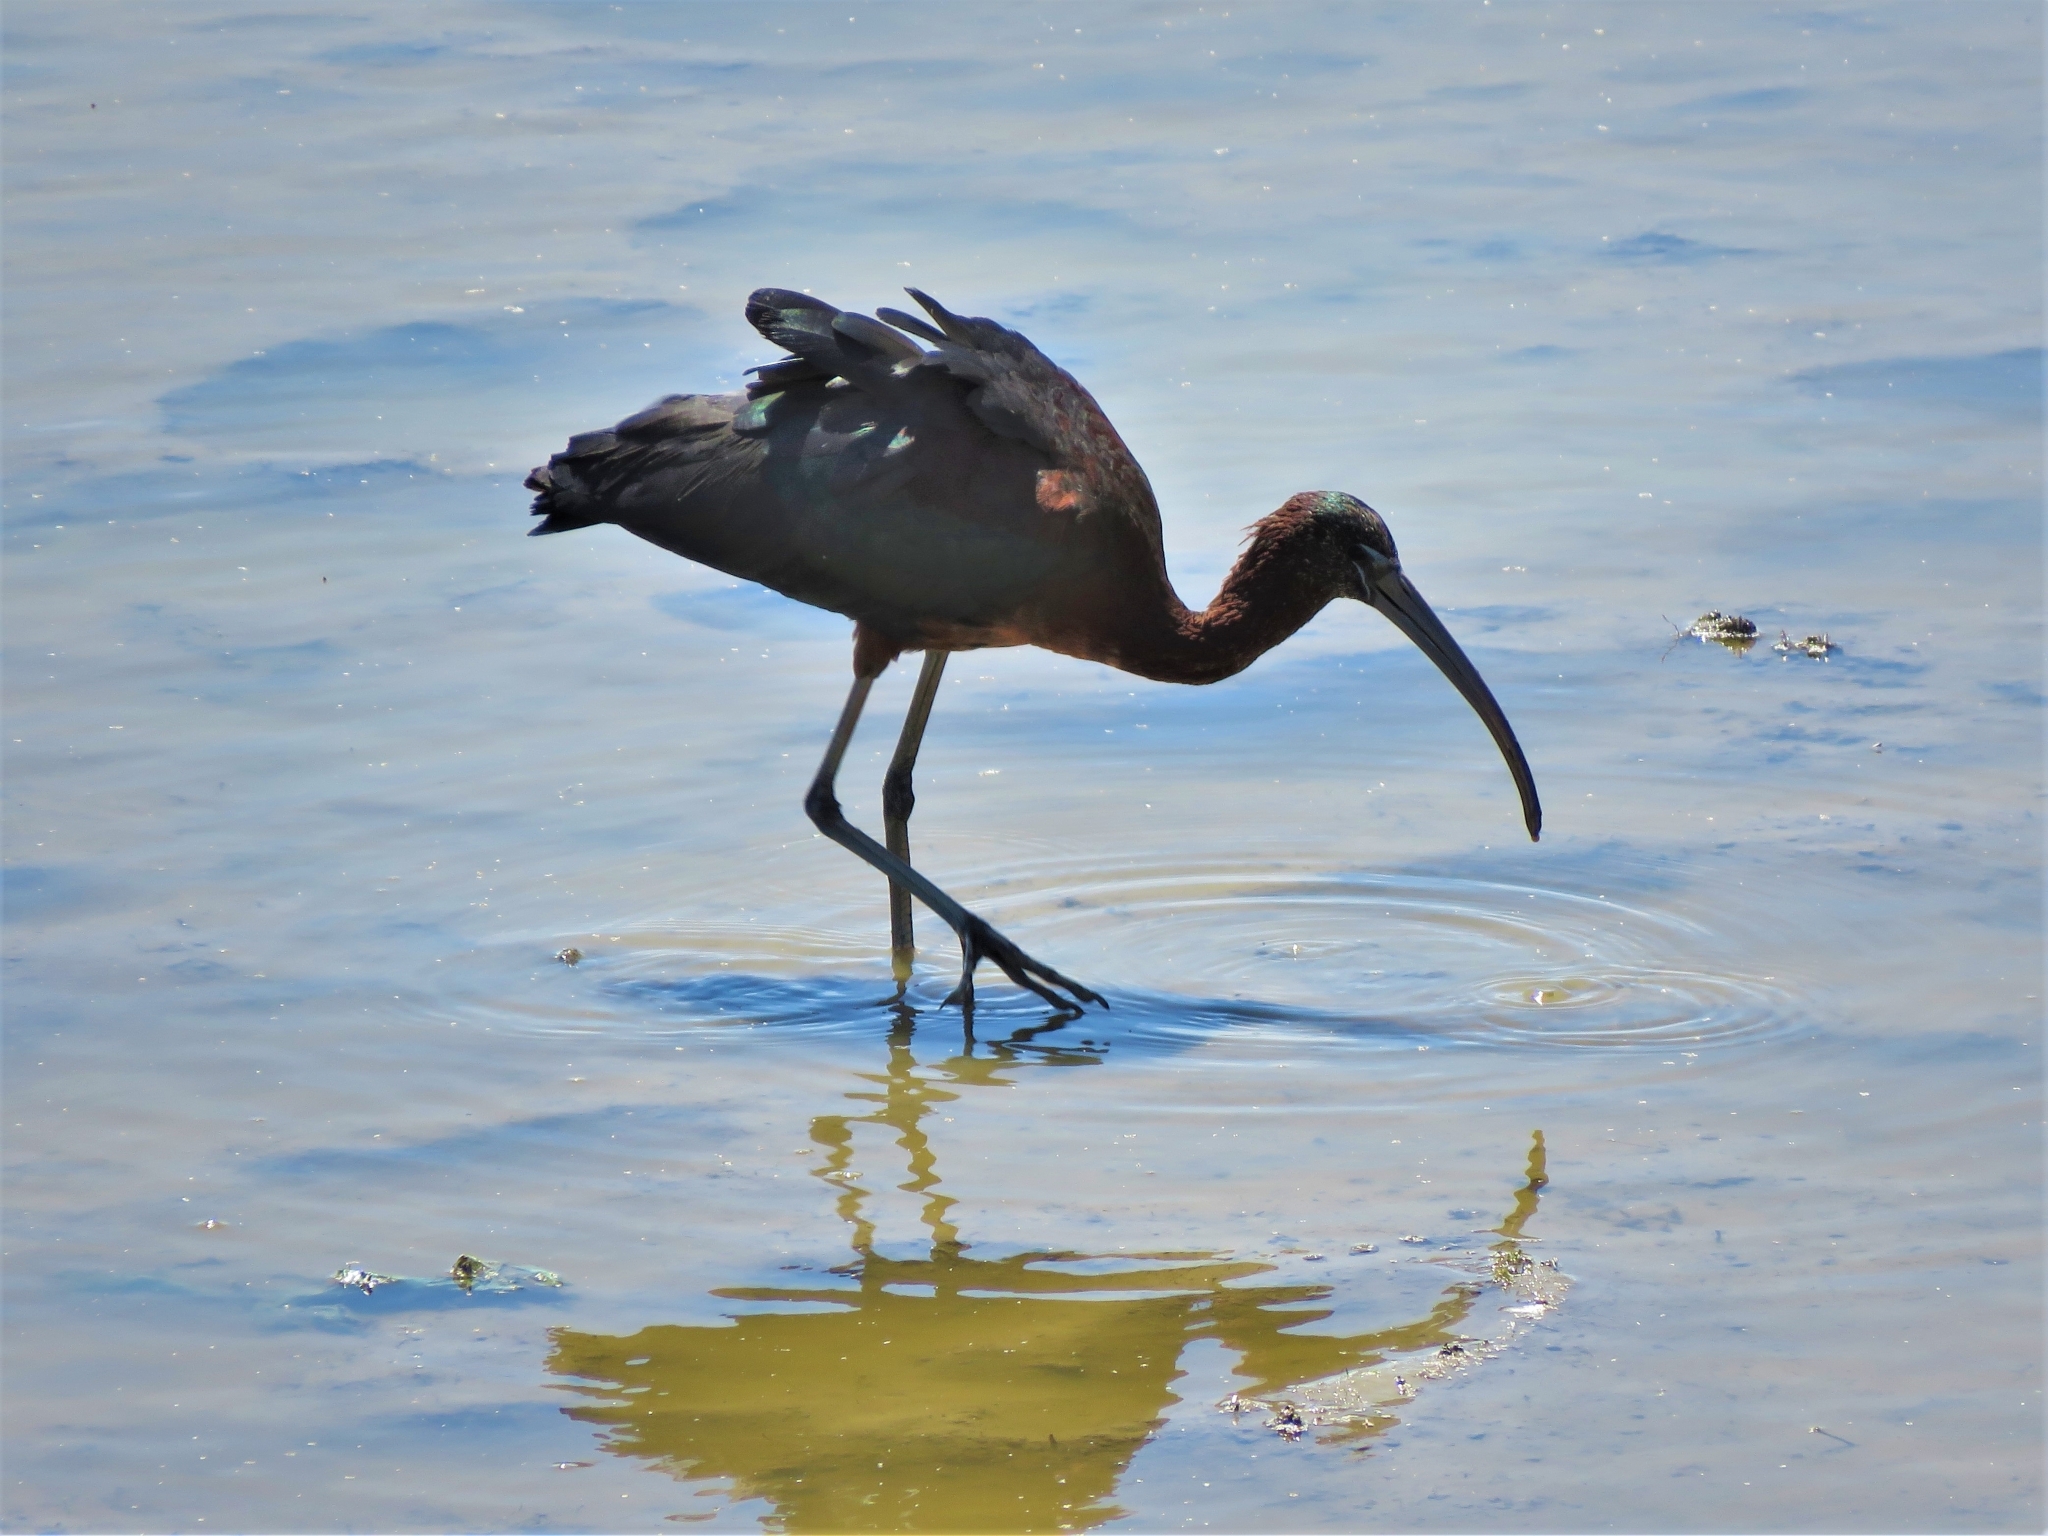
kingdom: Animalia
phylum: Chordata
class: Aves
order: Pelecaniformes
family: Threskiornithidae
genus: Plegadis
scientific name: Plegadis falcinellus
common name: Glossy ibis
